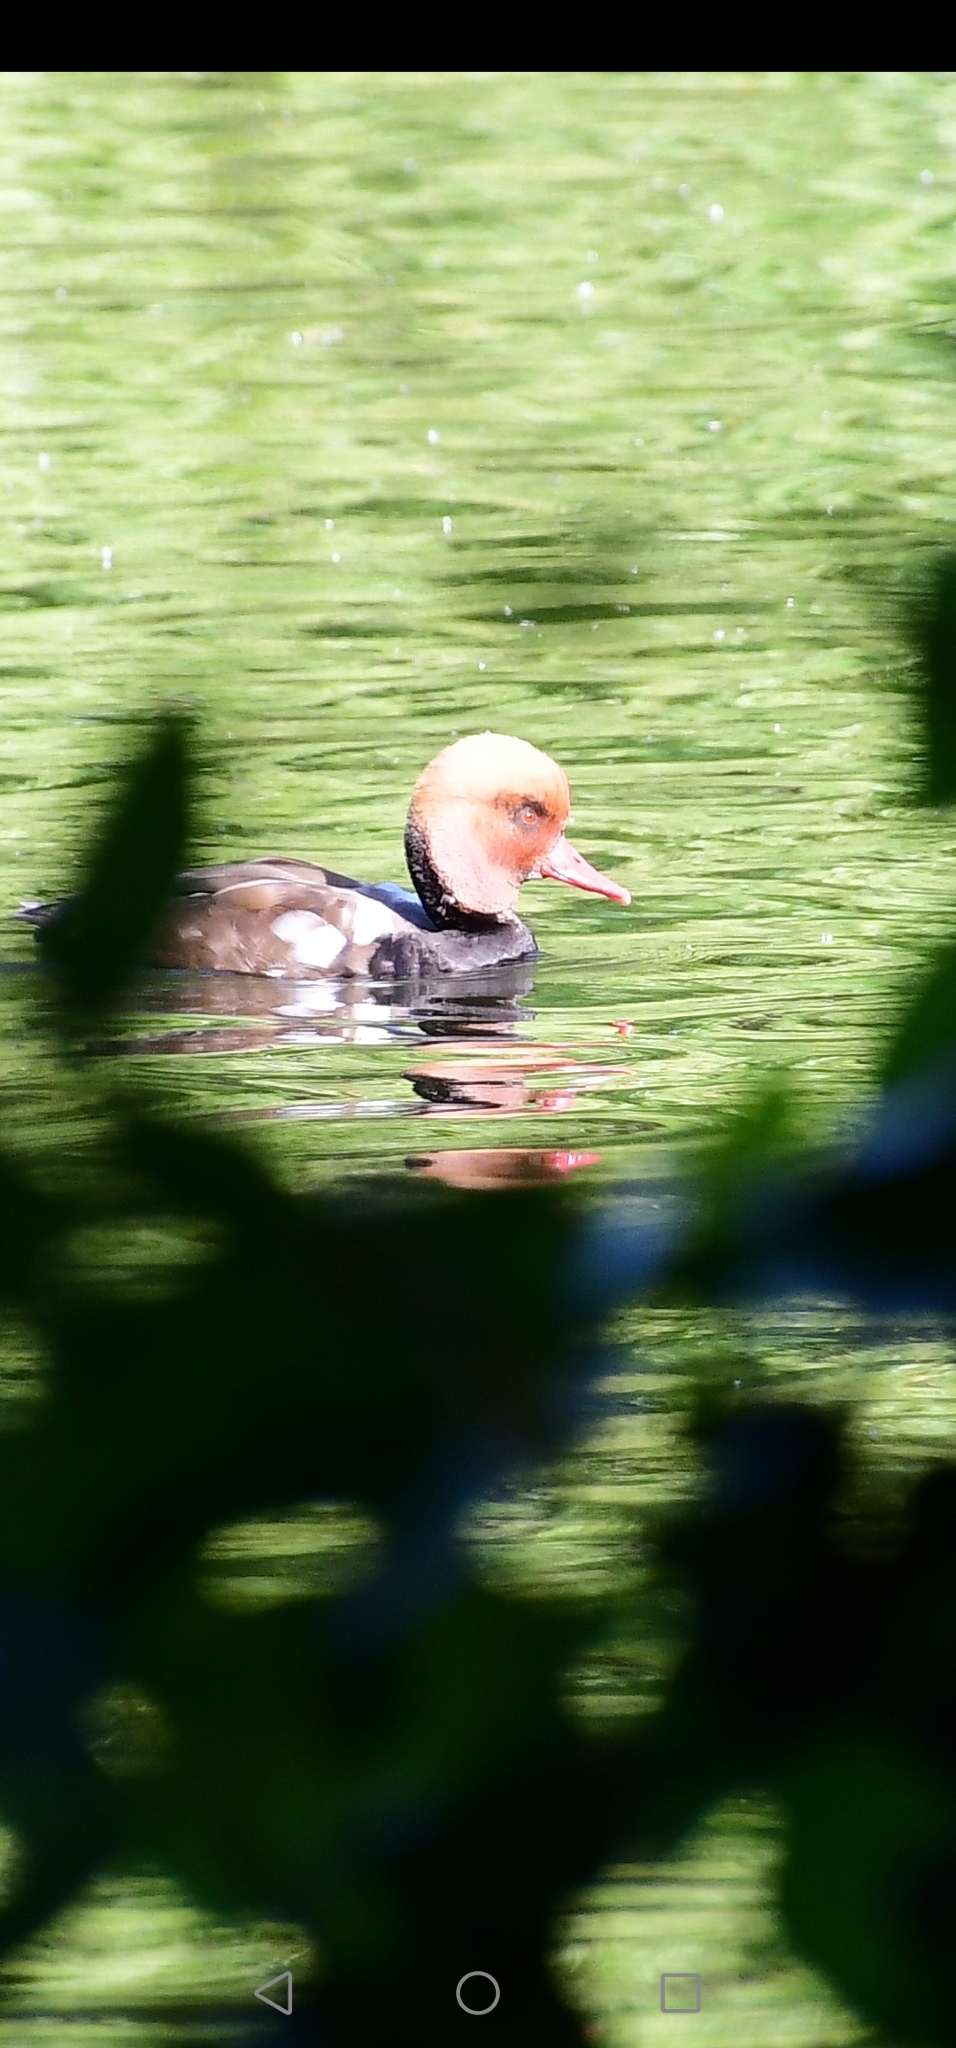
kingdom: Animalia
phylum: Chordata
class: Aves
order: Anseriformes
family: Anatidae
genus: Netta
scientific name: Netta rufina
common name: Red-crested pochard
